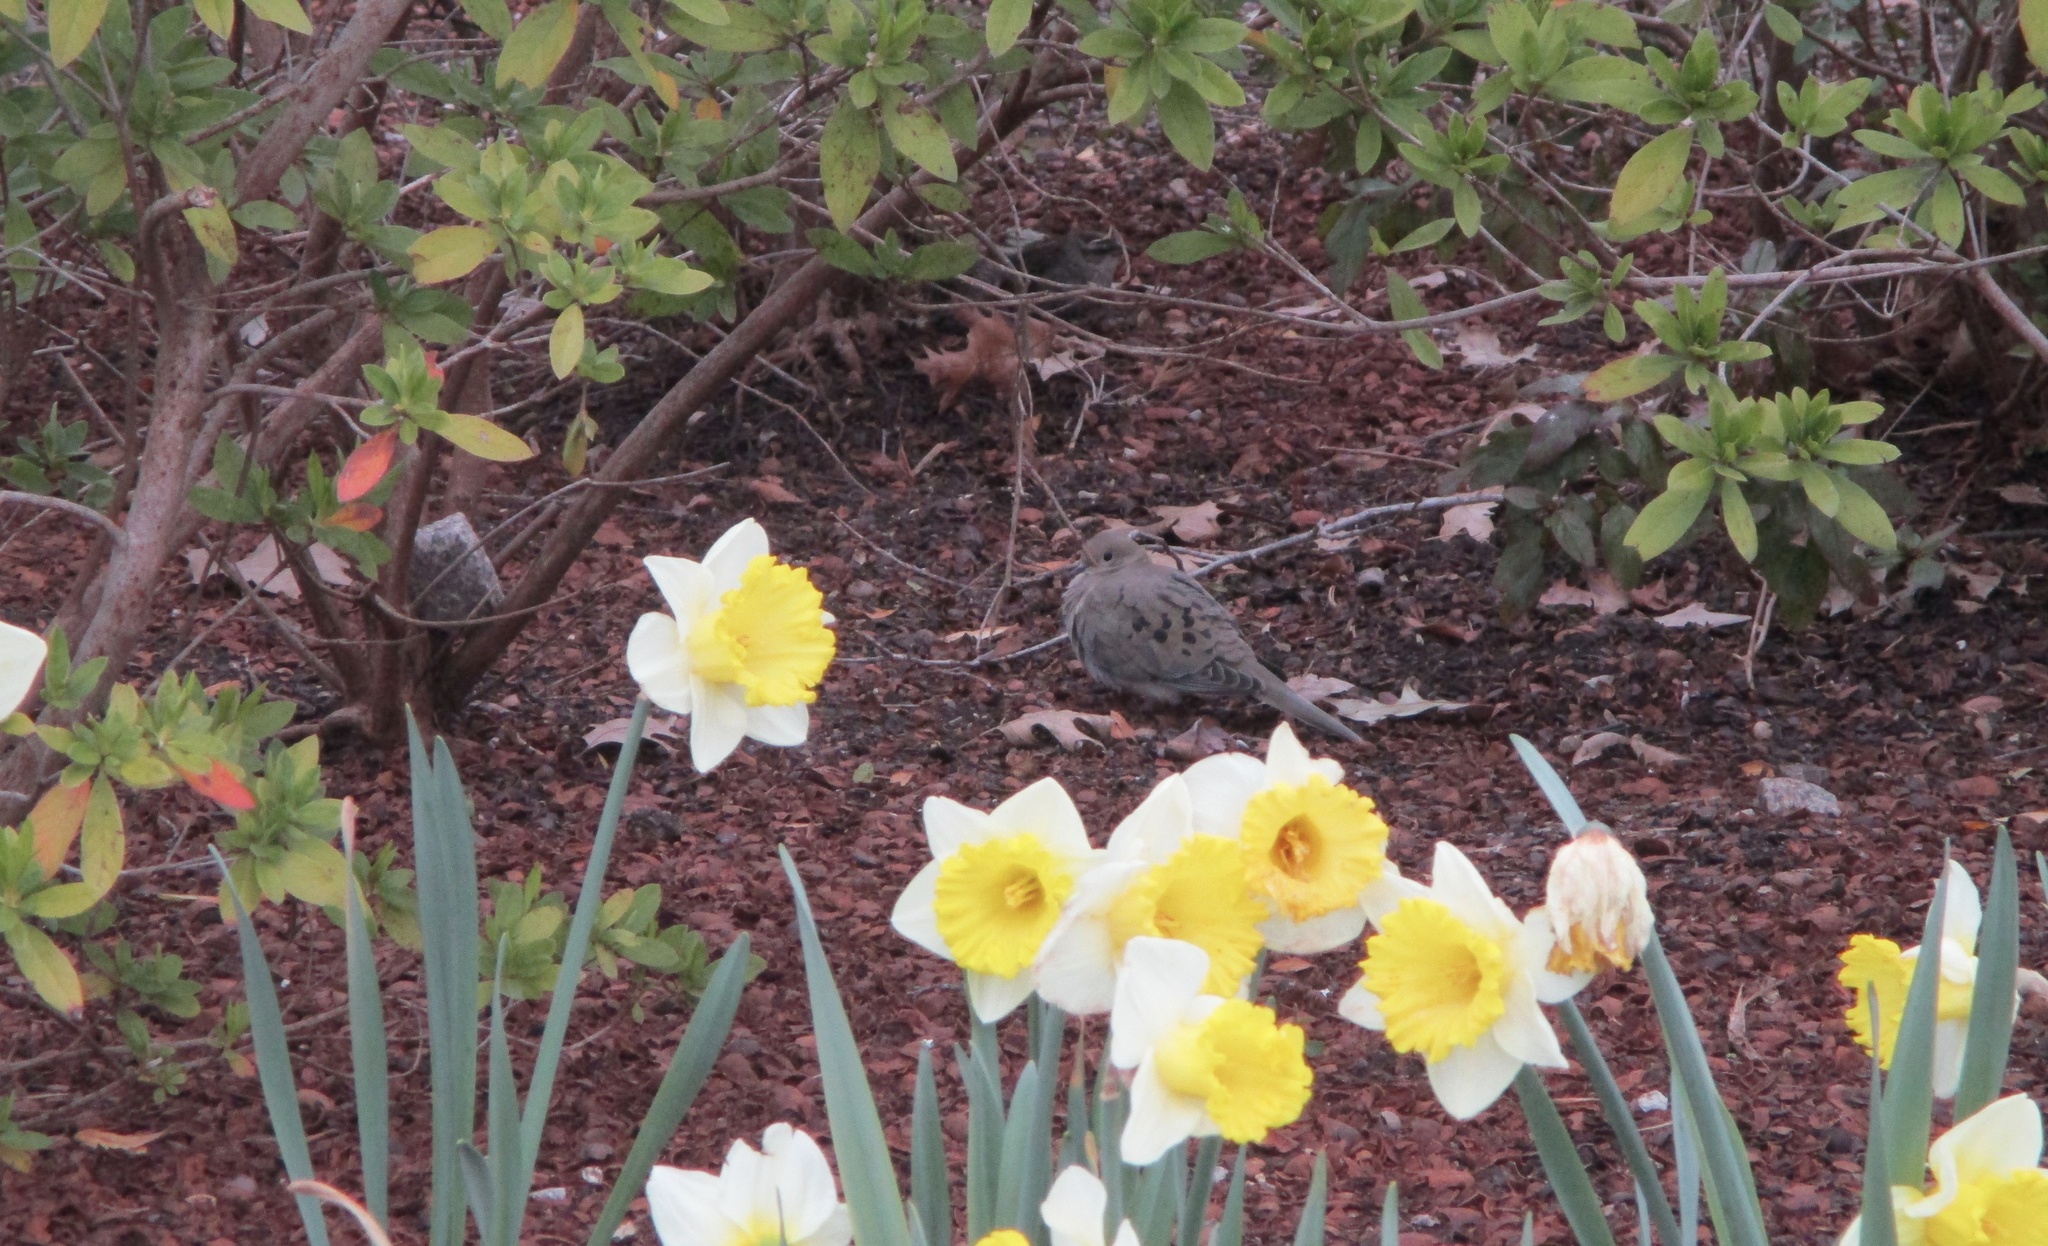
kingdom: Animalia
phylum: Chordata
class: Aves
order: Columbiformes
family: Columbidae
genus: Zenaida
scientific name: Zenaida macroura
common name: Mourning dove
